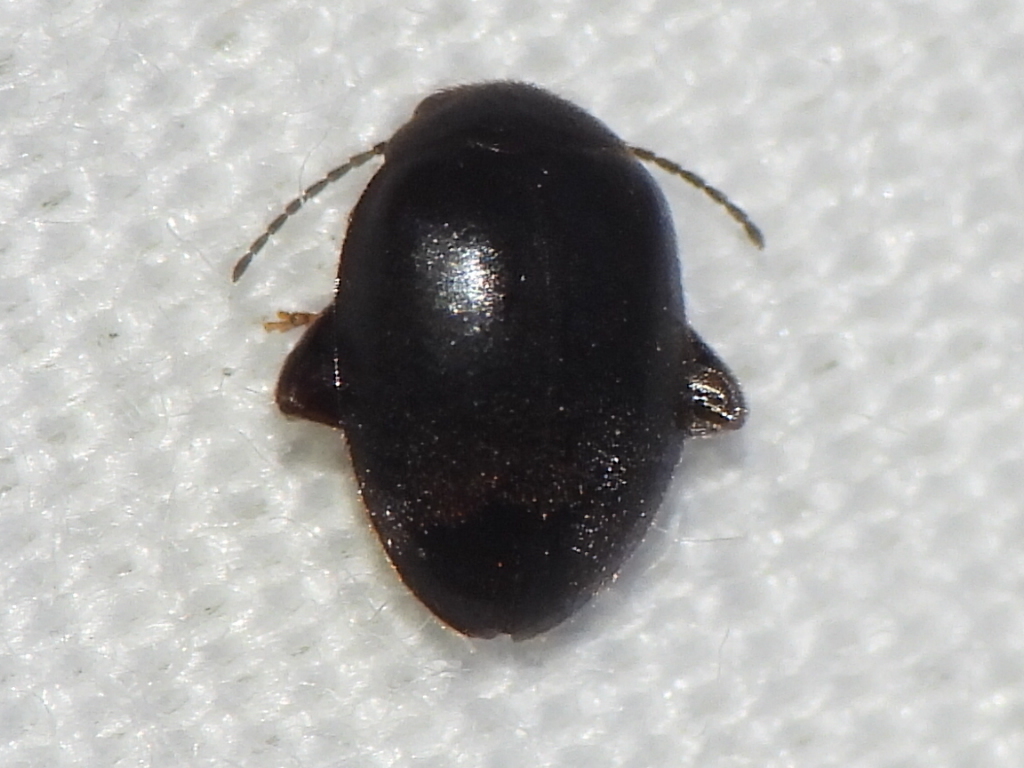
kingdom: Animalia
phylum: Arthropoda
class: Insecta
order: Coleoptera
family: Scirtidae
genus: Scirtes
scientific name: Scirtes tibialis
